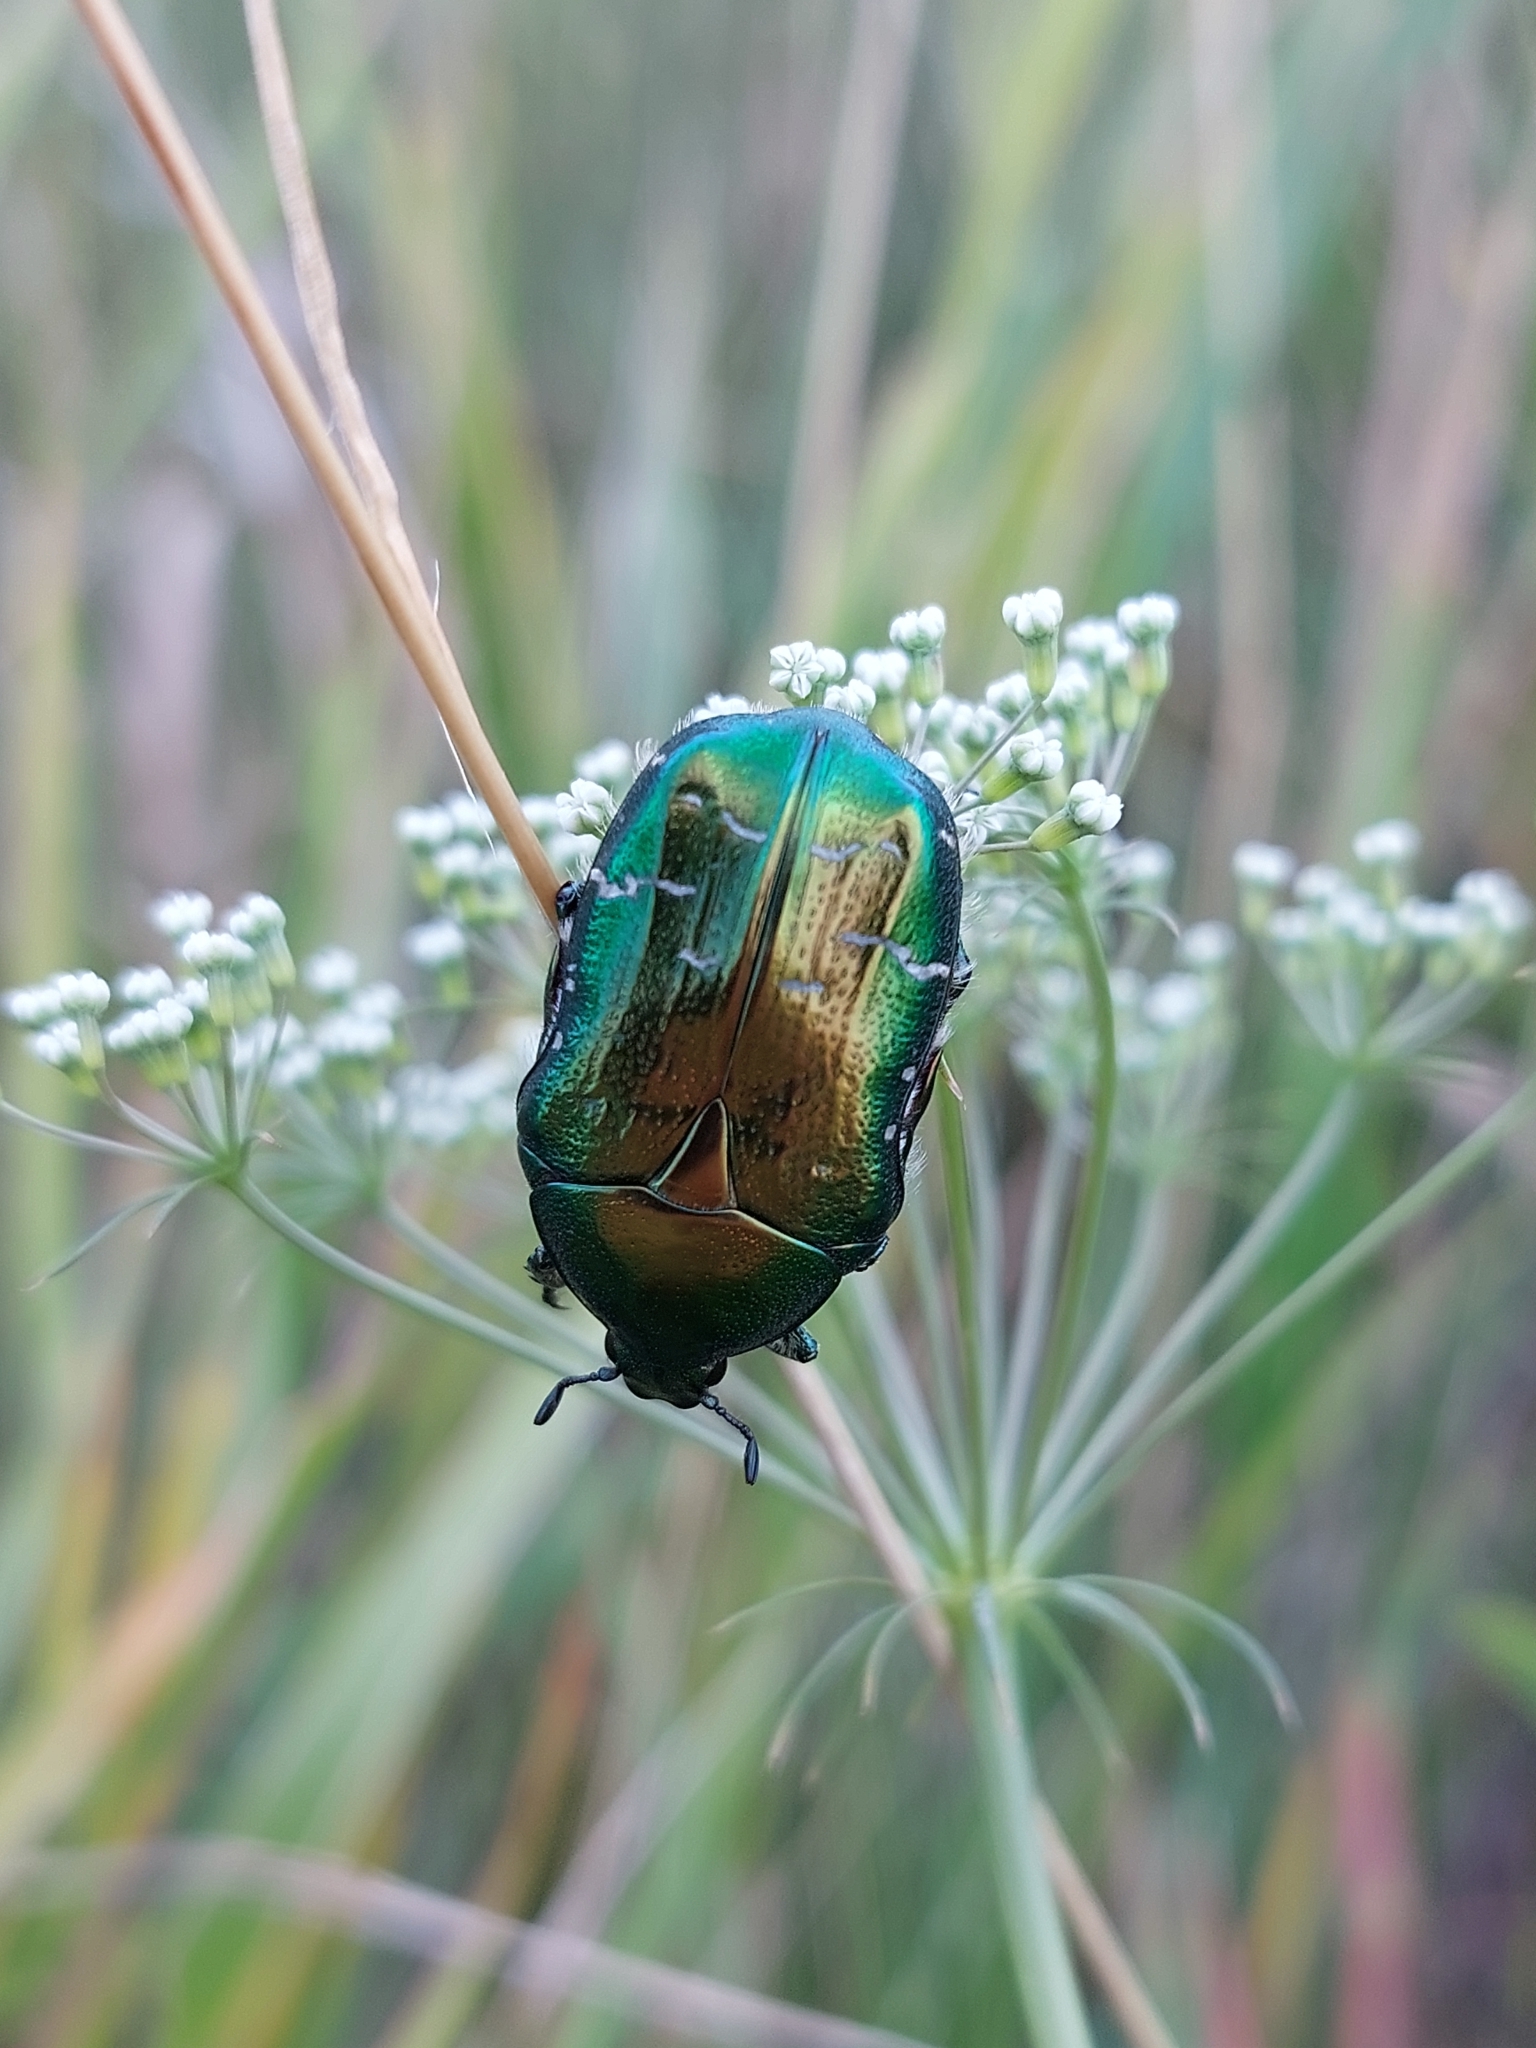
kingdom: Animalia
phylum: Arthropoda
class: Insecta
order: Coleoptera
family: Scarabaeidae
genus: Cetonia
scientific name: Cetonia aurata
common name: Rose chafer
